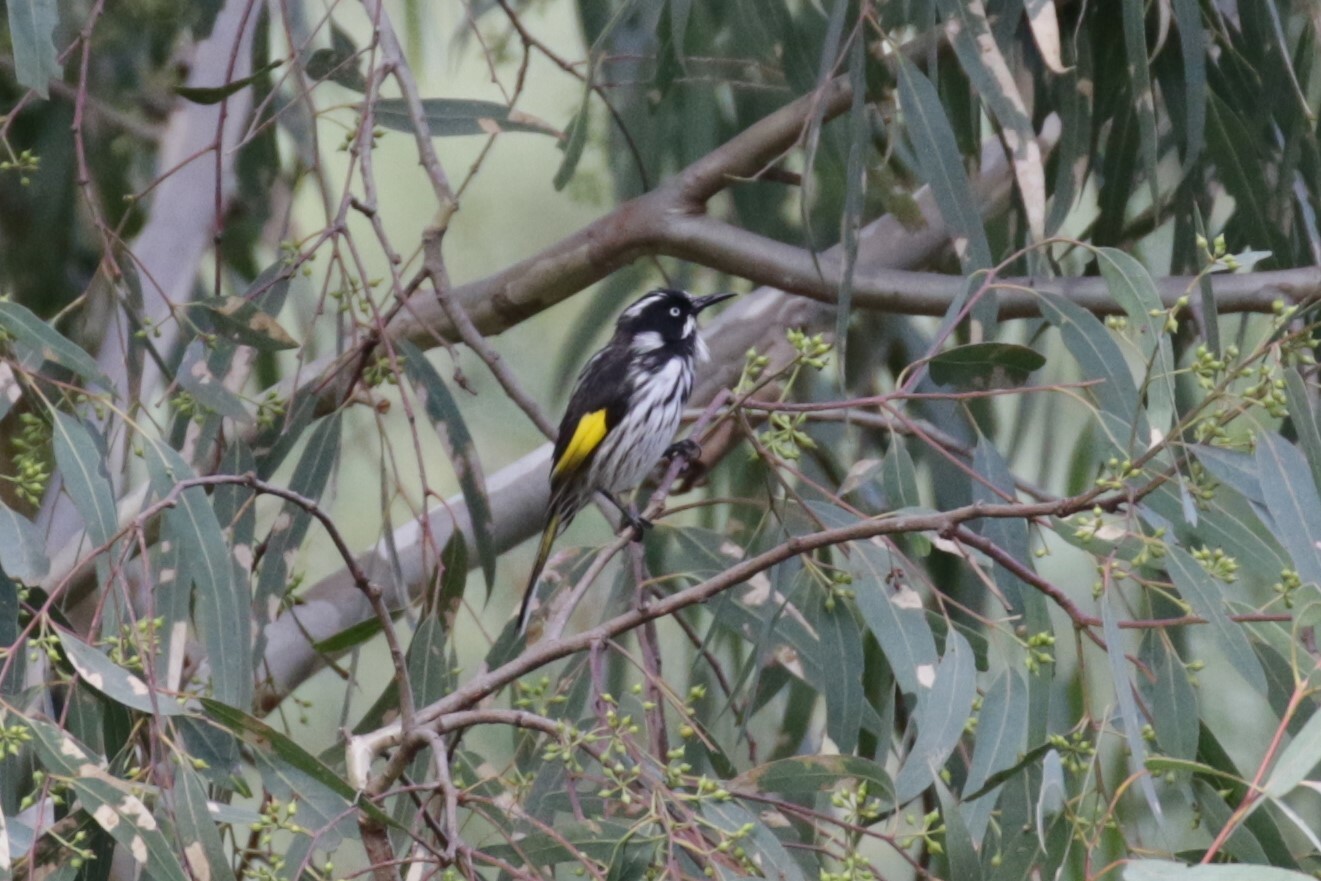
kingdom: Animalia
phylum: Chordata
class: Aves
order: Passeriformes
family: Meliphagidae
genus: Phylidonyris
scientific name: Phylidonyris novaehollandiae
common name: New holland honeyeater
